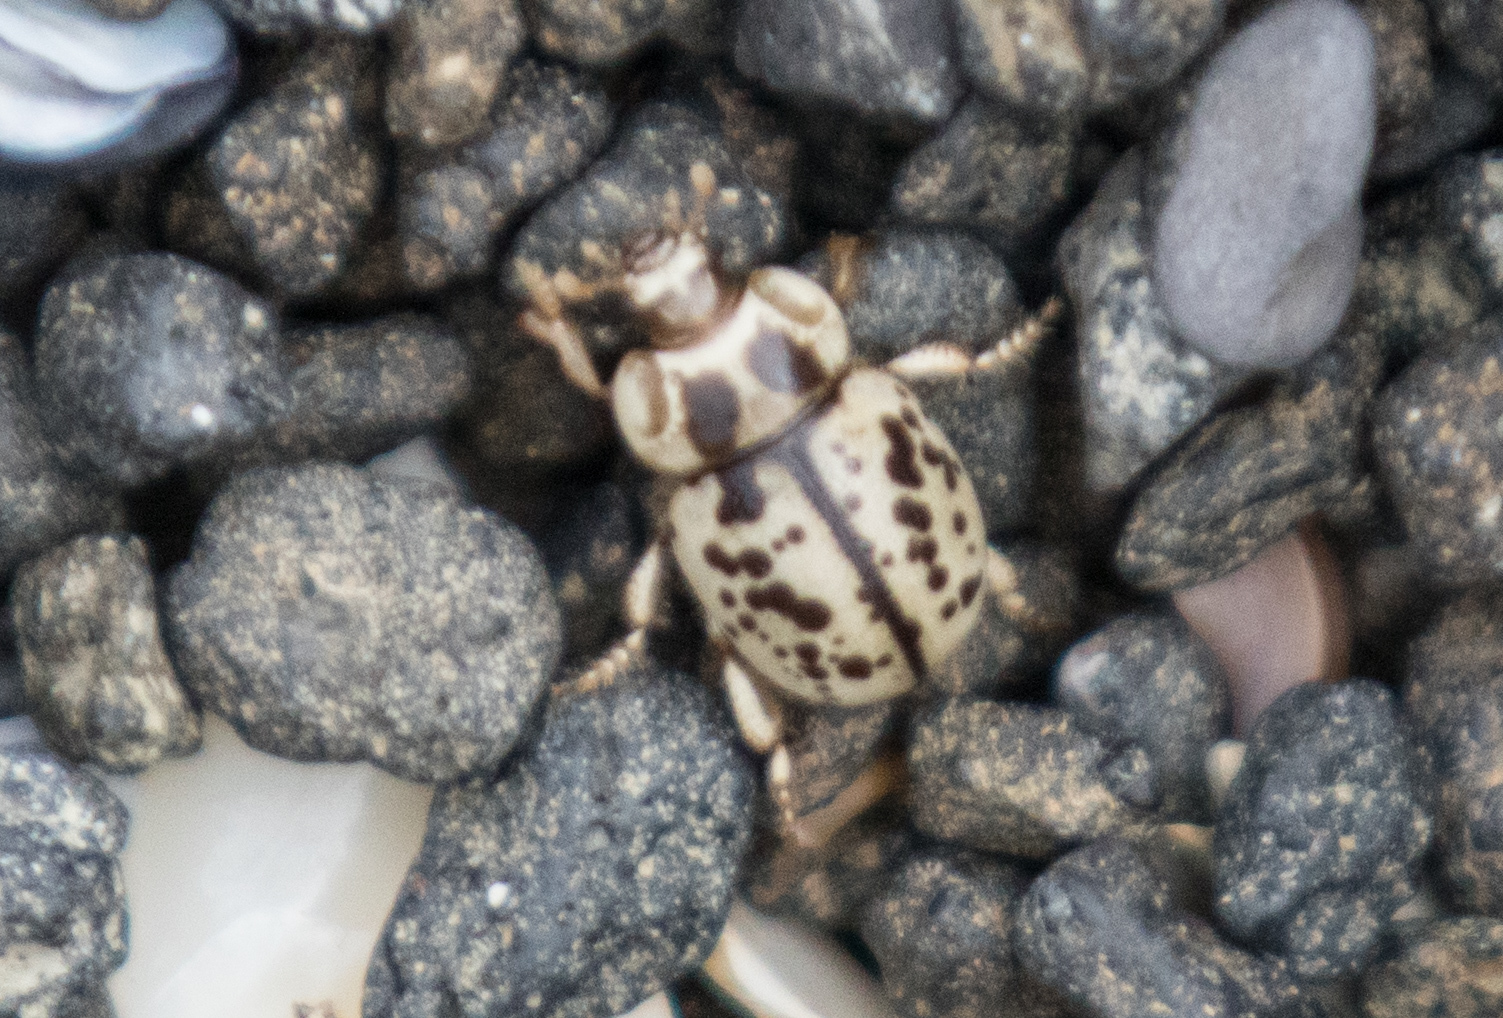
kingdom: Animalia
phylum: Arthropoda
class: Insecta
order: Coleoptera
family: Tenebrionidae
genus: Chaerodes
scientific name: Chaerodes trachyscelides
